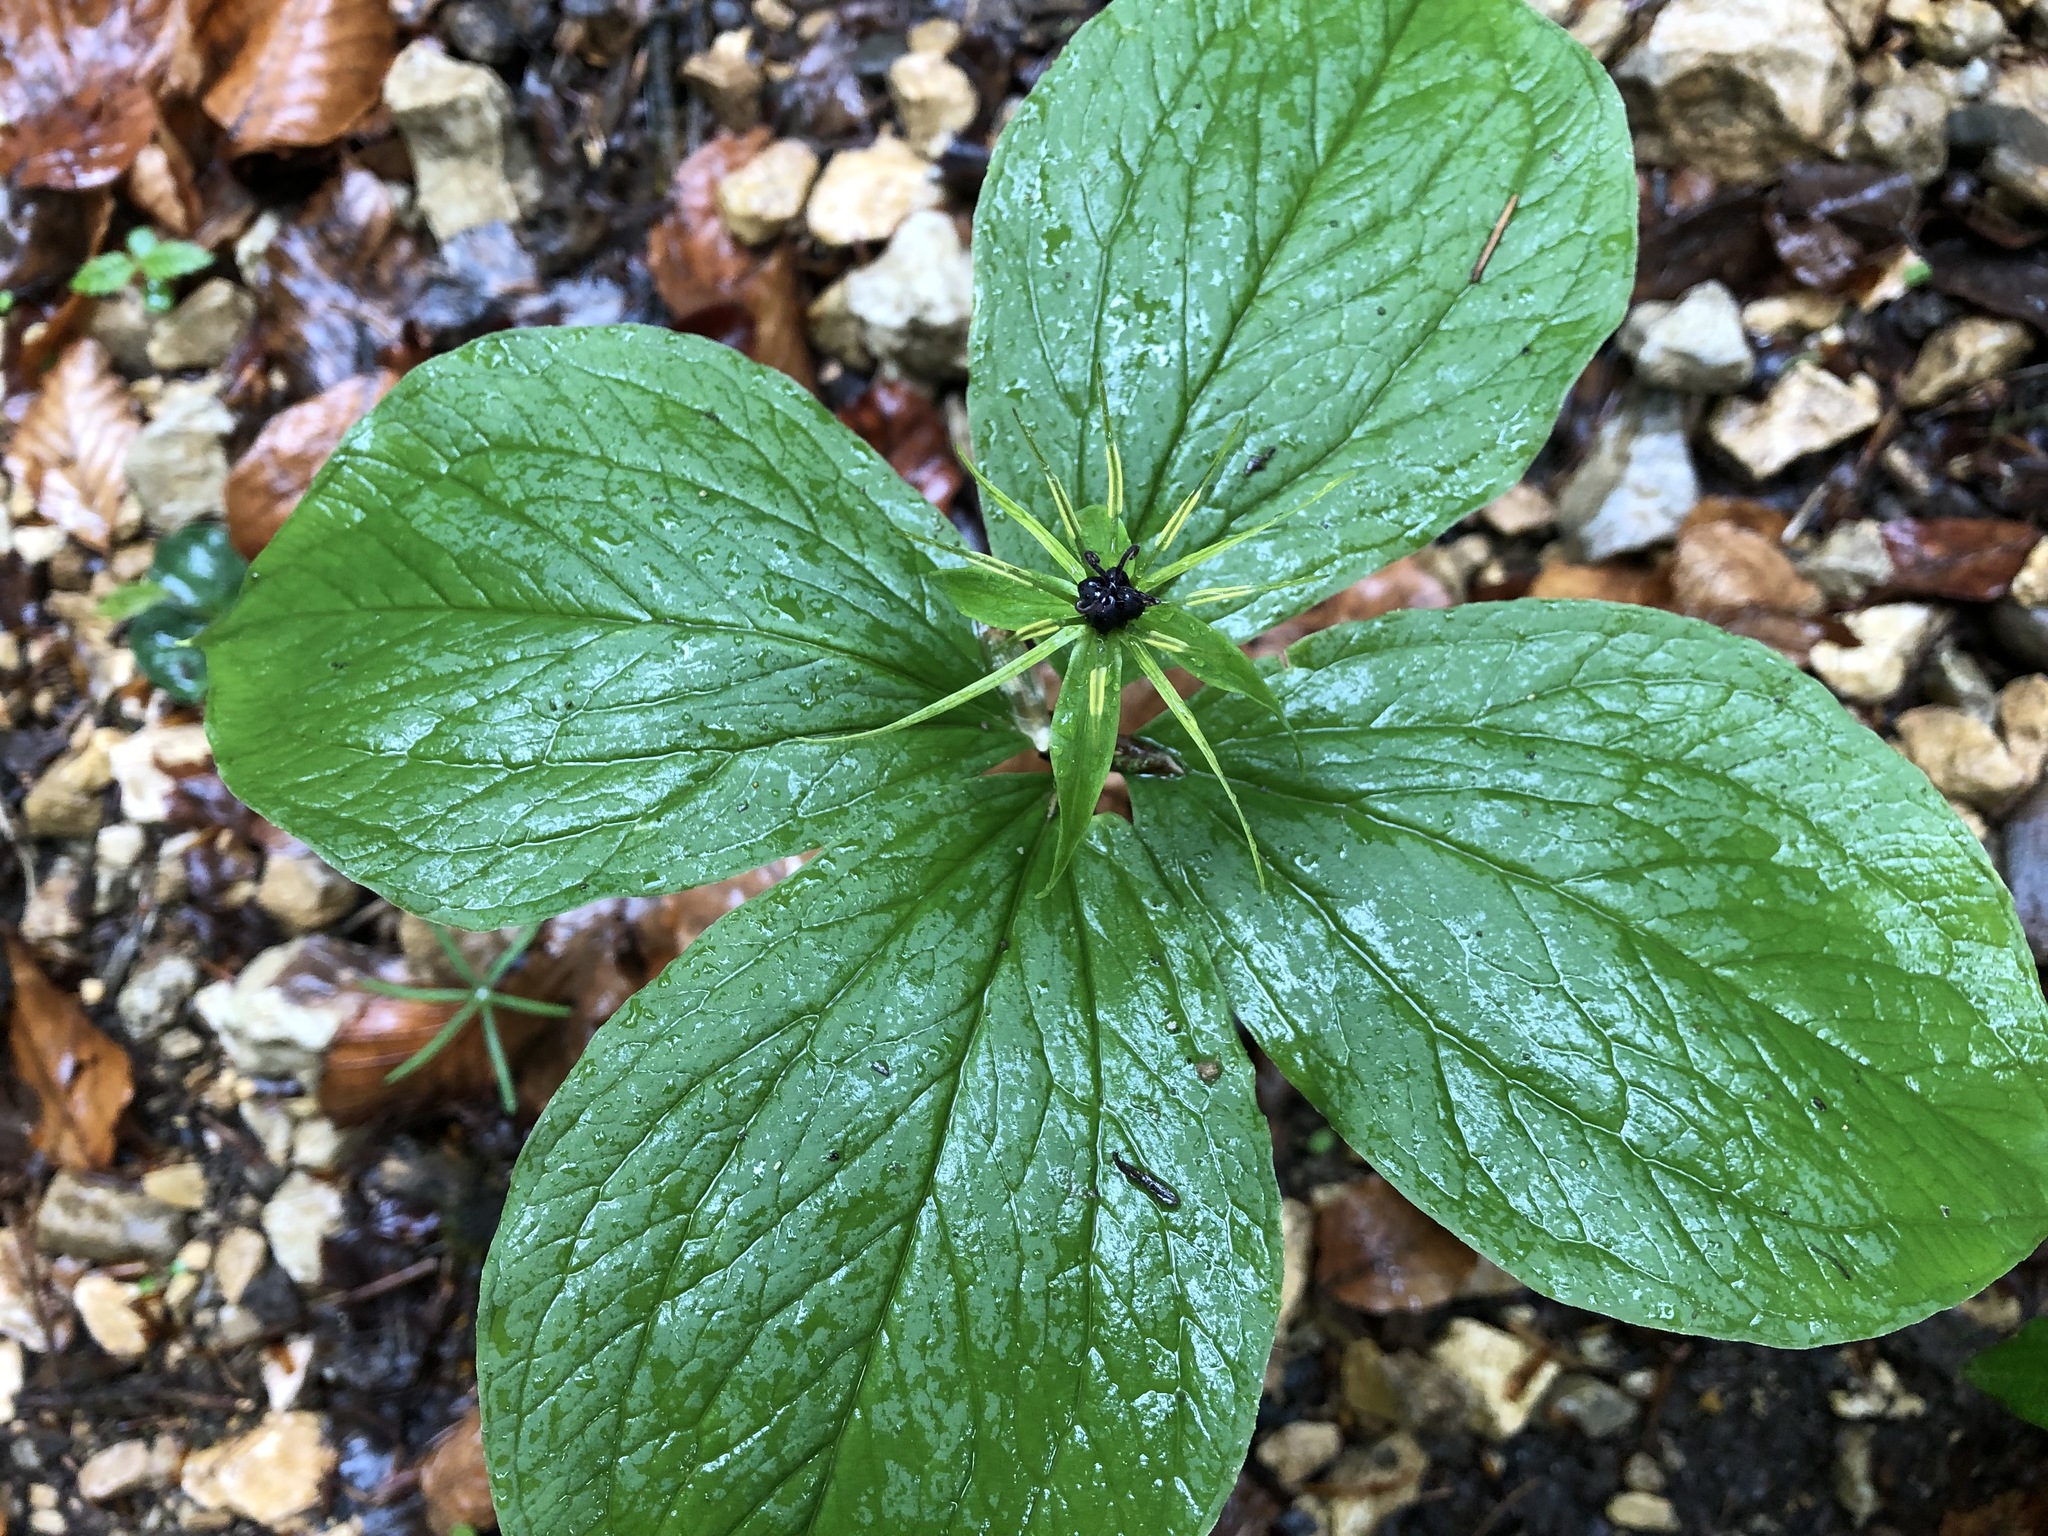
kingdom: Plantae
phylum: Tracheophyta
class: Liliopsida
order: Liliales
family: Melanthiaceae
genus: Paris
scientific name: Paris quadrifolia
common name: Herb-paris
